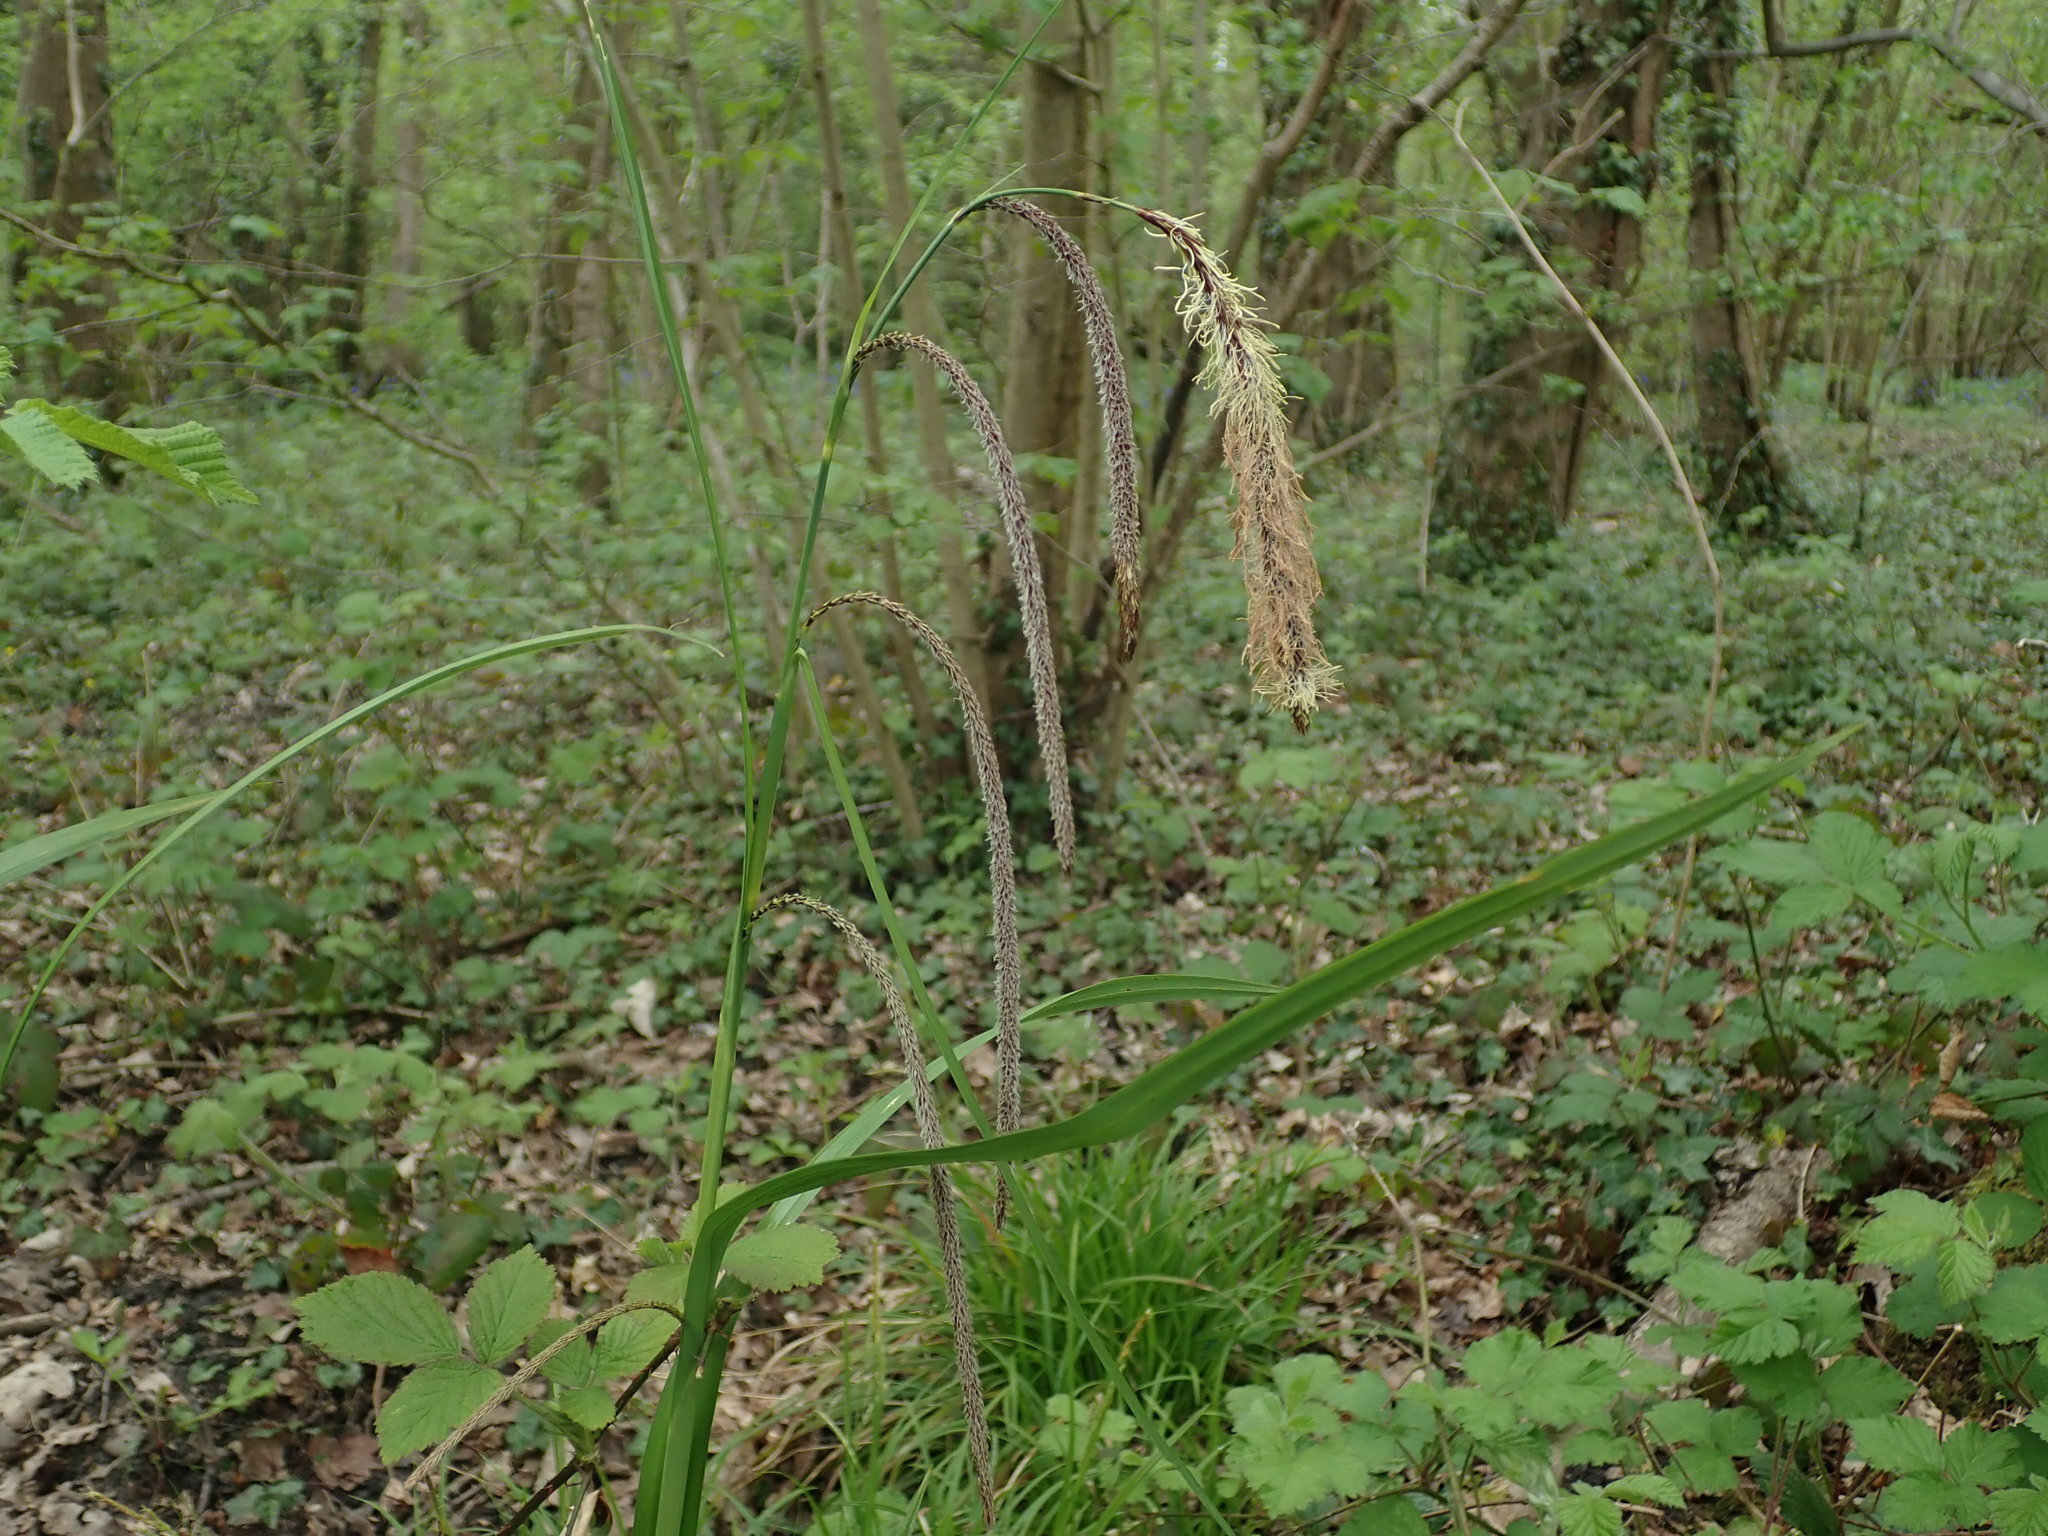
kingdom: Plantae
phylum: Tracheophyta
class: Liliopsida
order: Poales
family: Cyperaceae
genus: Carex
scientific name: Carex pendula
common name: Pendulous sedge
